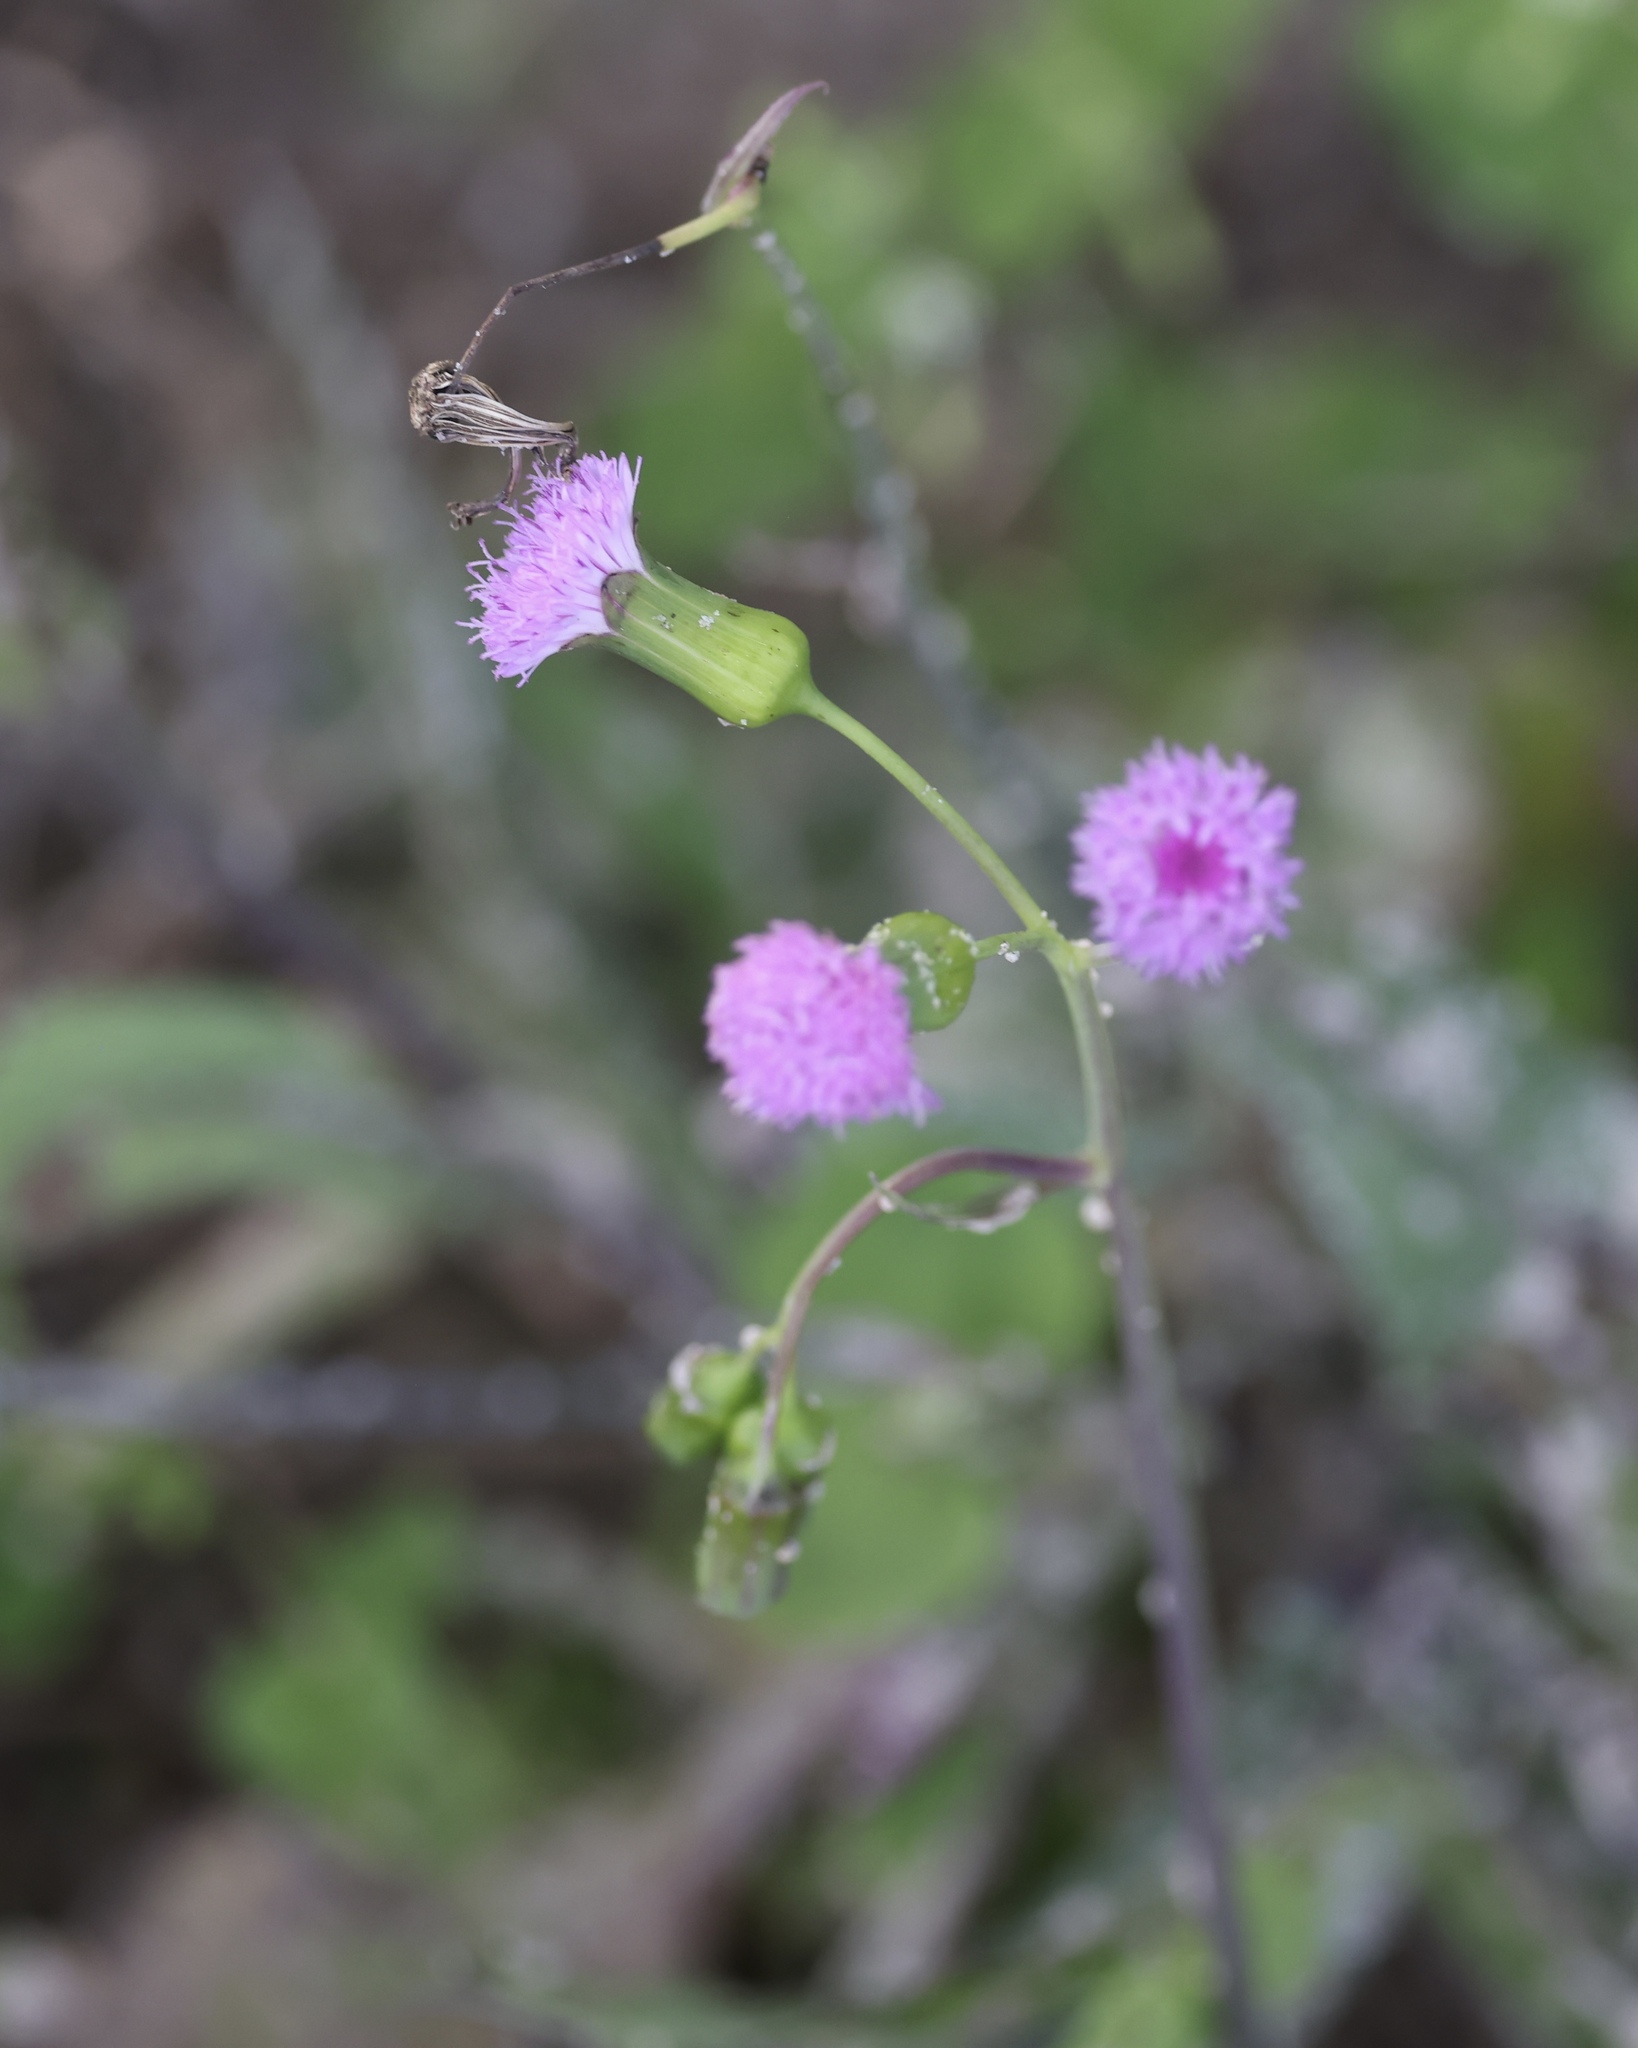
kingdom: Plantae
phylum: Tracheophyta
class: Magnoliopsida
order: Asterales
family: Asteraceae
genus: Emilia
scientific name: Emilia sonchifolia
